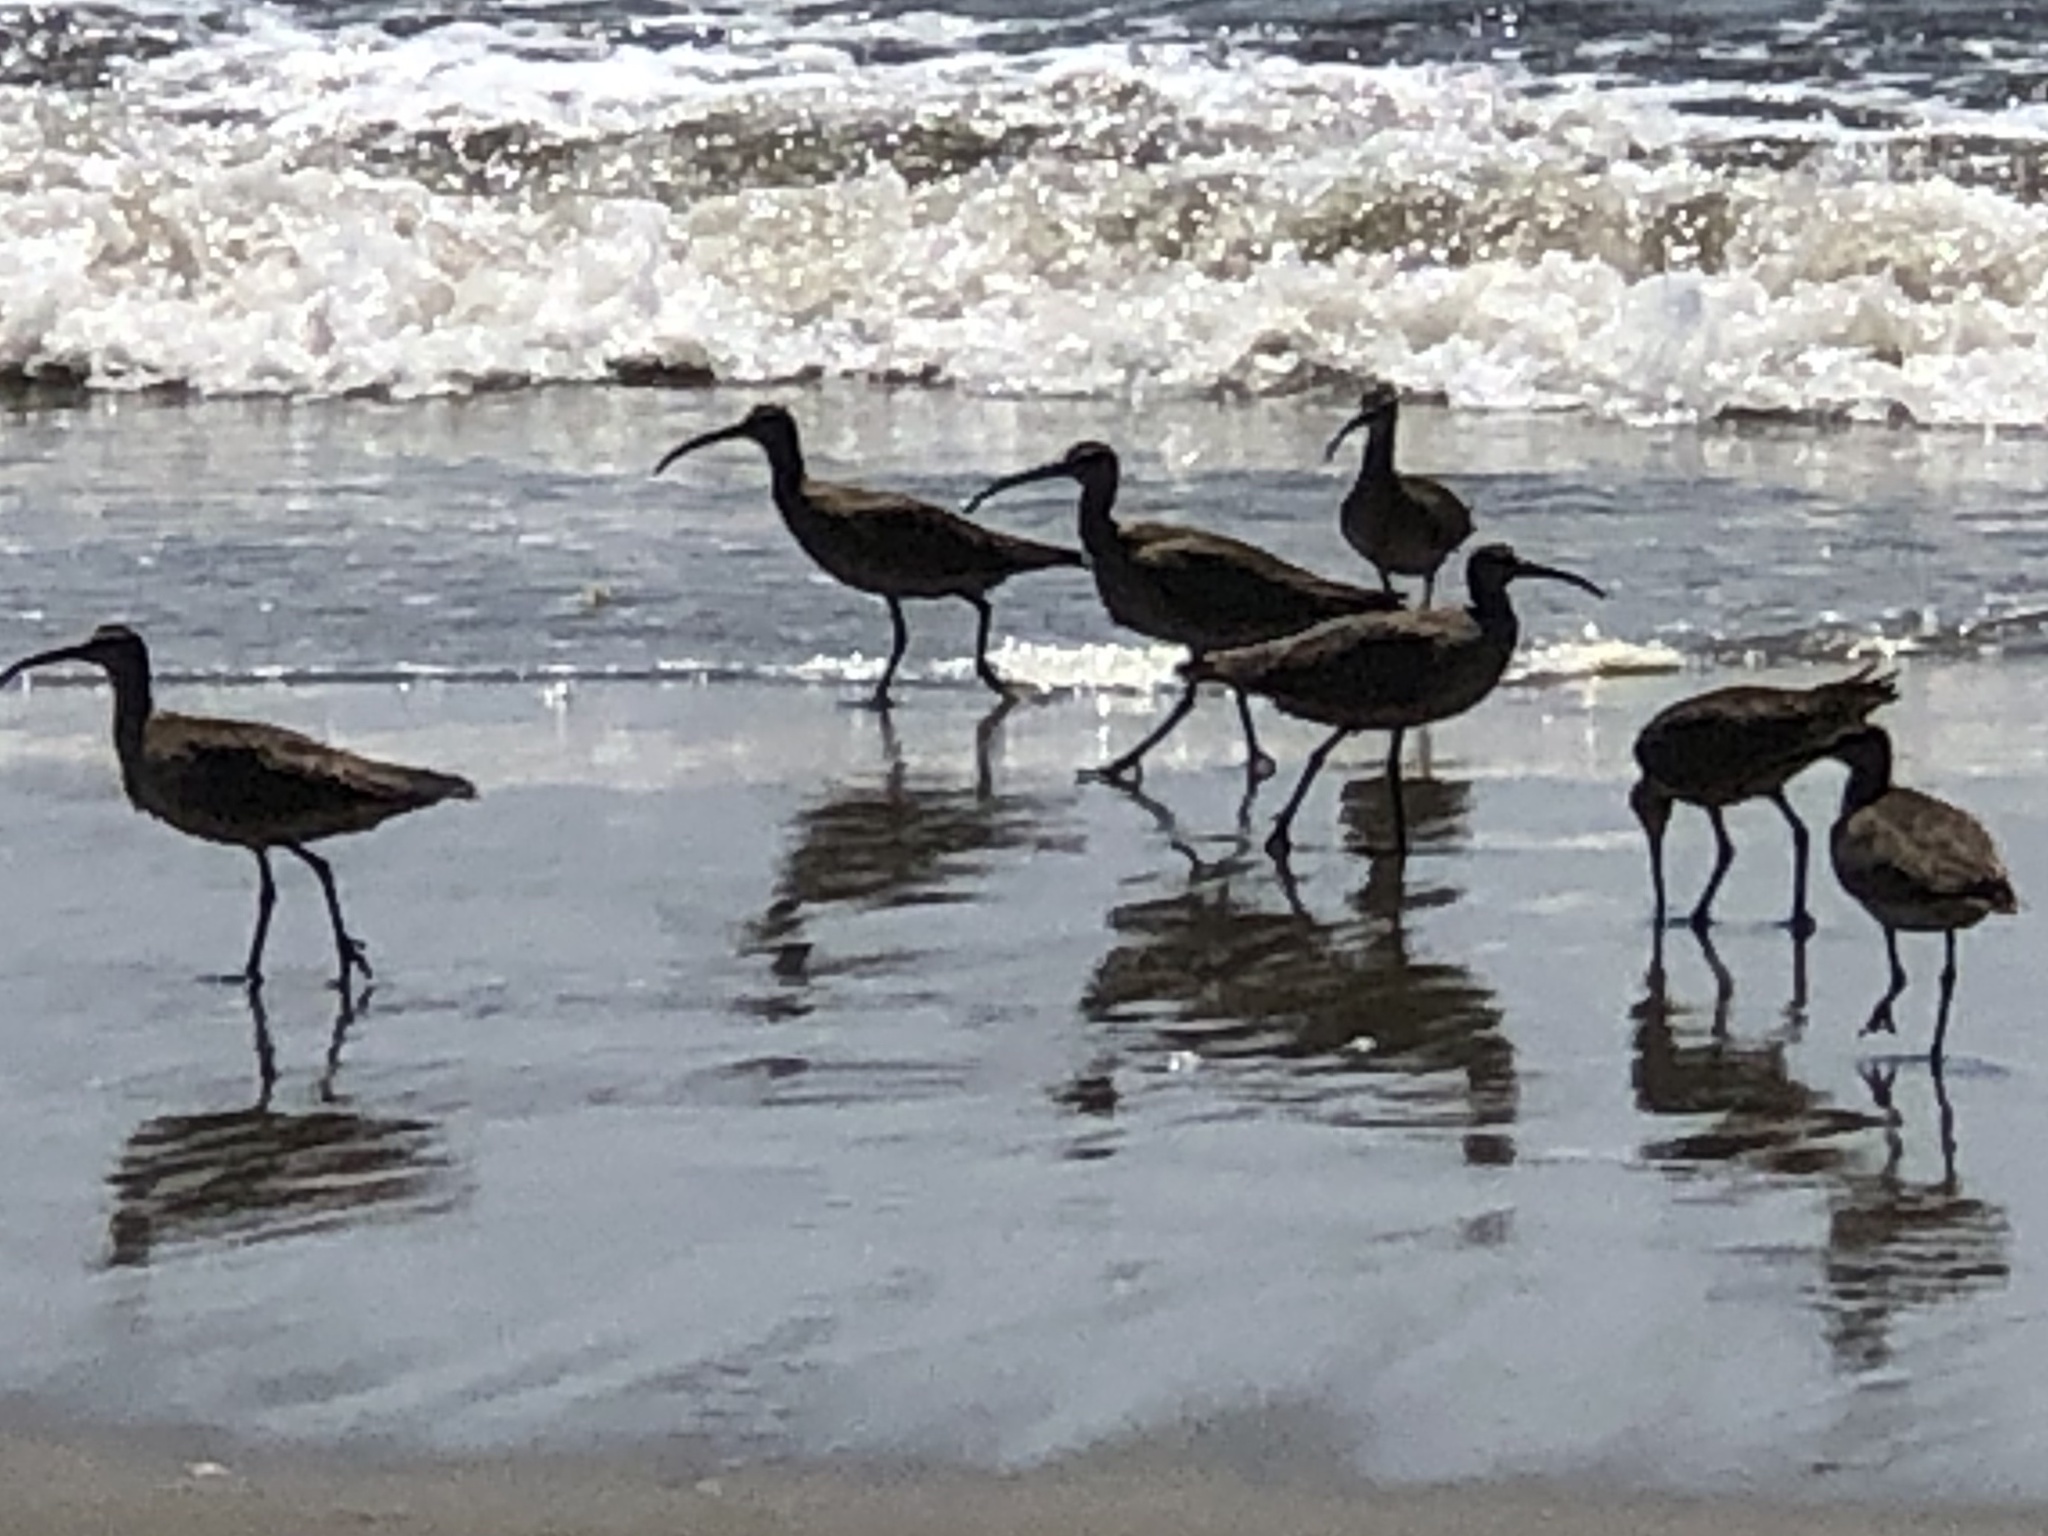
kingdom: Animalia
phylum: Chordata
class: Aves
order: Charadriiformes
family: Scolopacidae
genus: Numenius
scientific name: Numenius phaeopus
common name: Whimbrel
